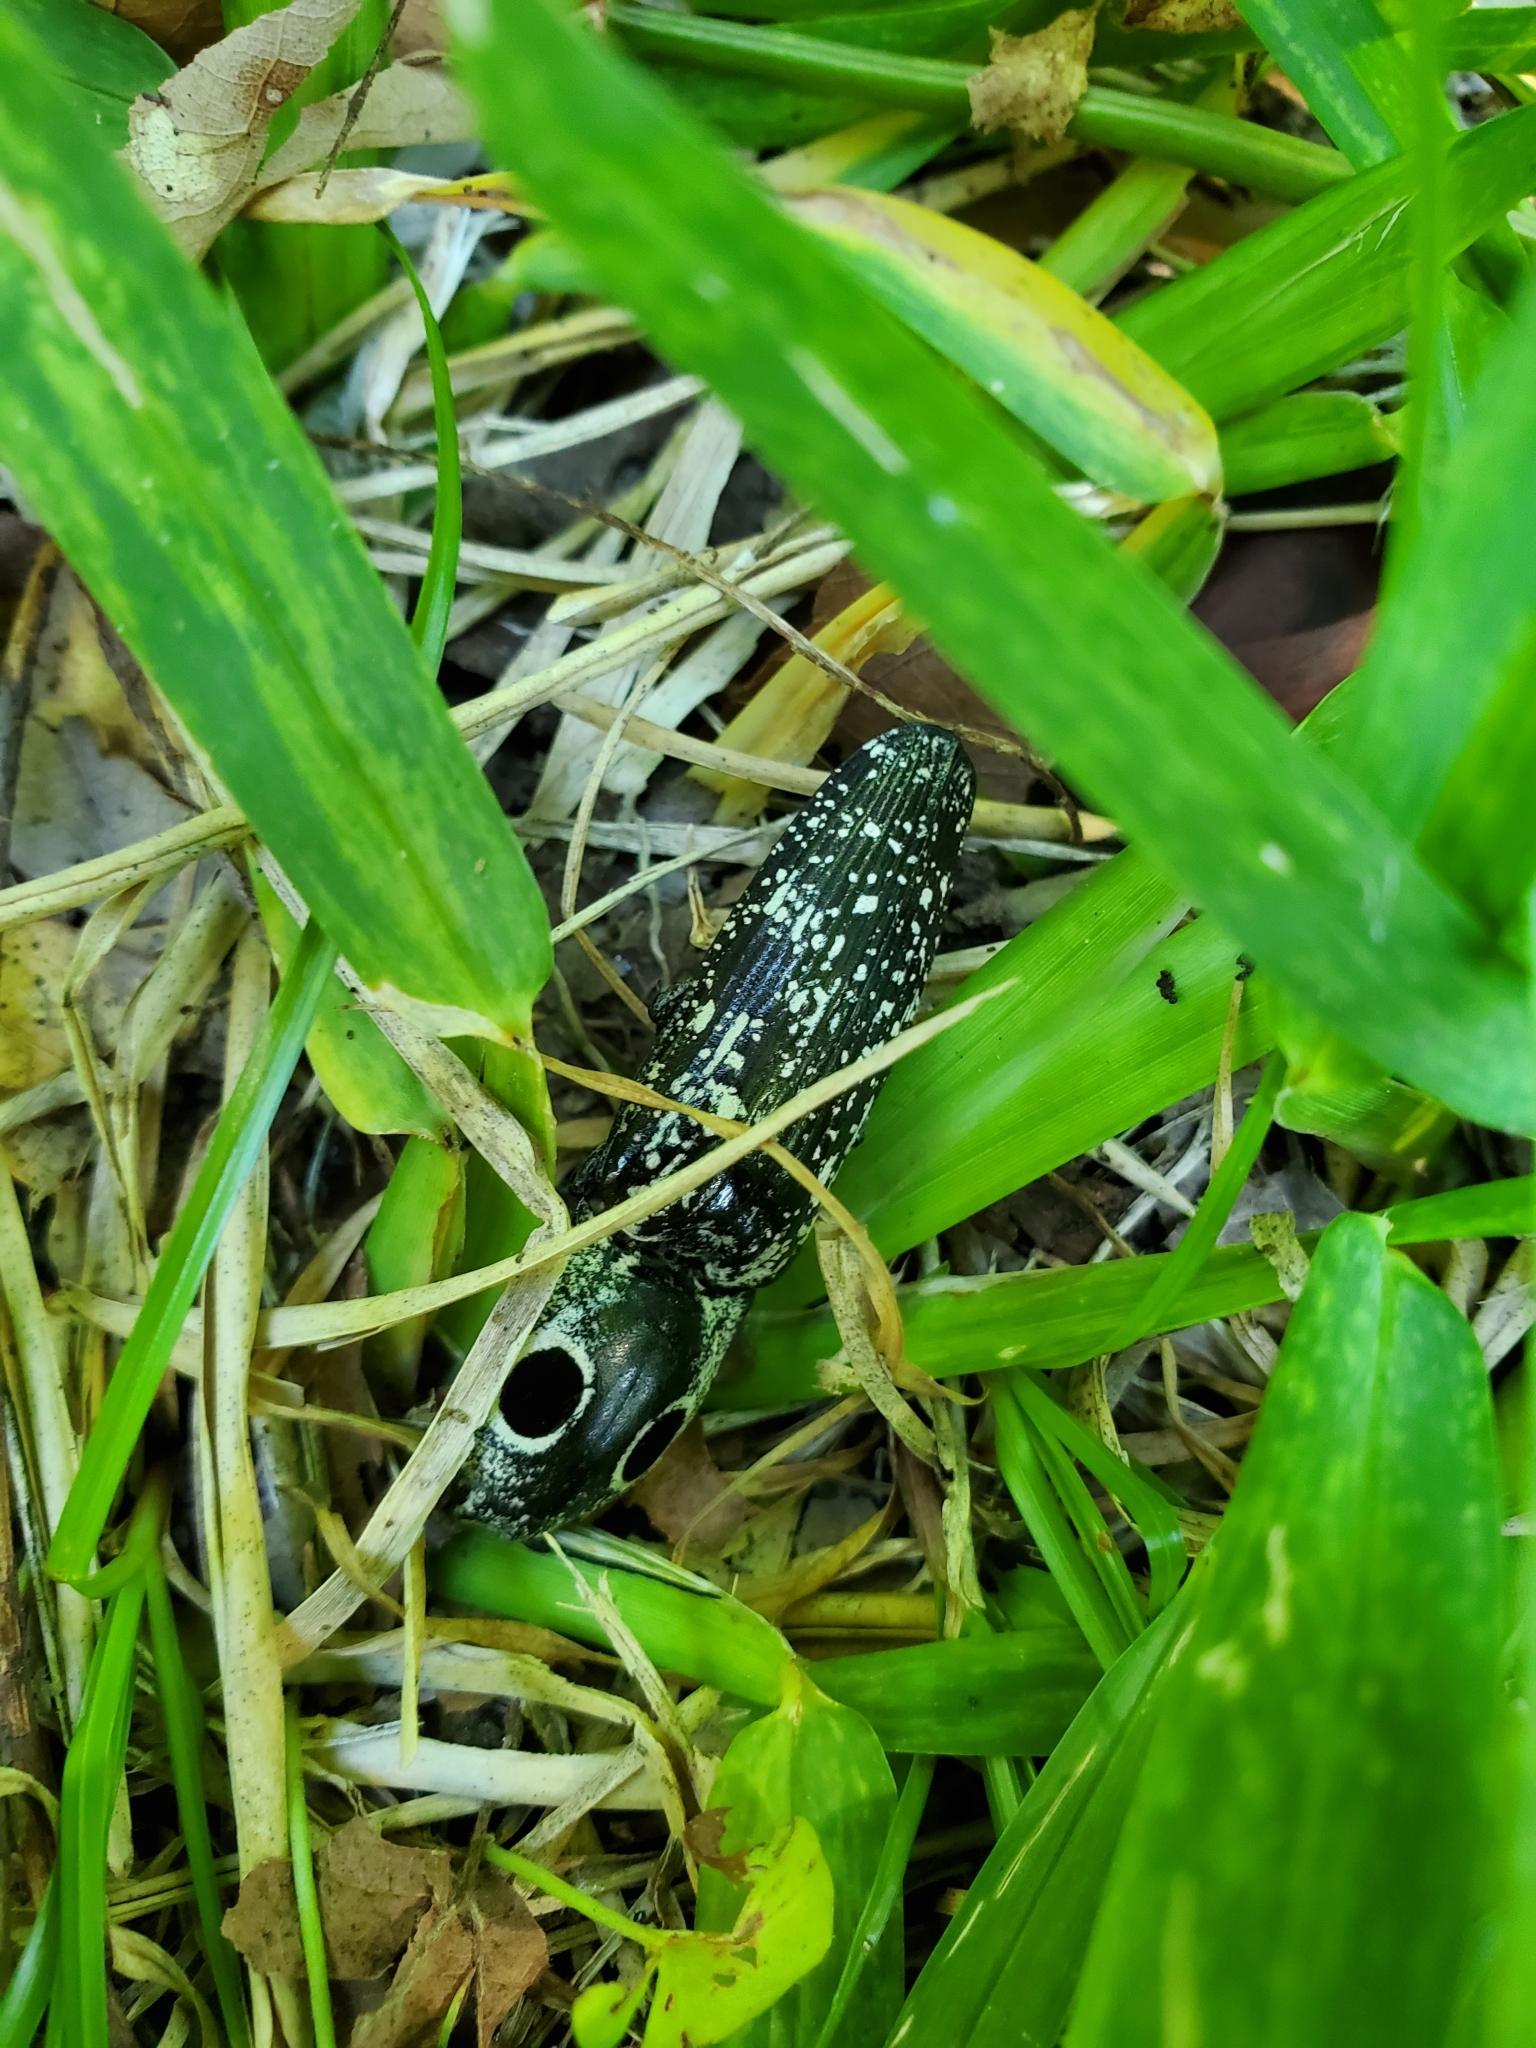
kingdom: Animalia
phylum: Arthropoda
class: Insecta
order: Coleoptera
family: Elateridae
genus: Alaus
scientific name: Alaus oculatus
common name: Eastern eyed click beetle
